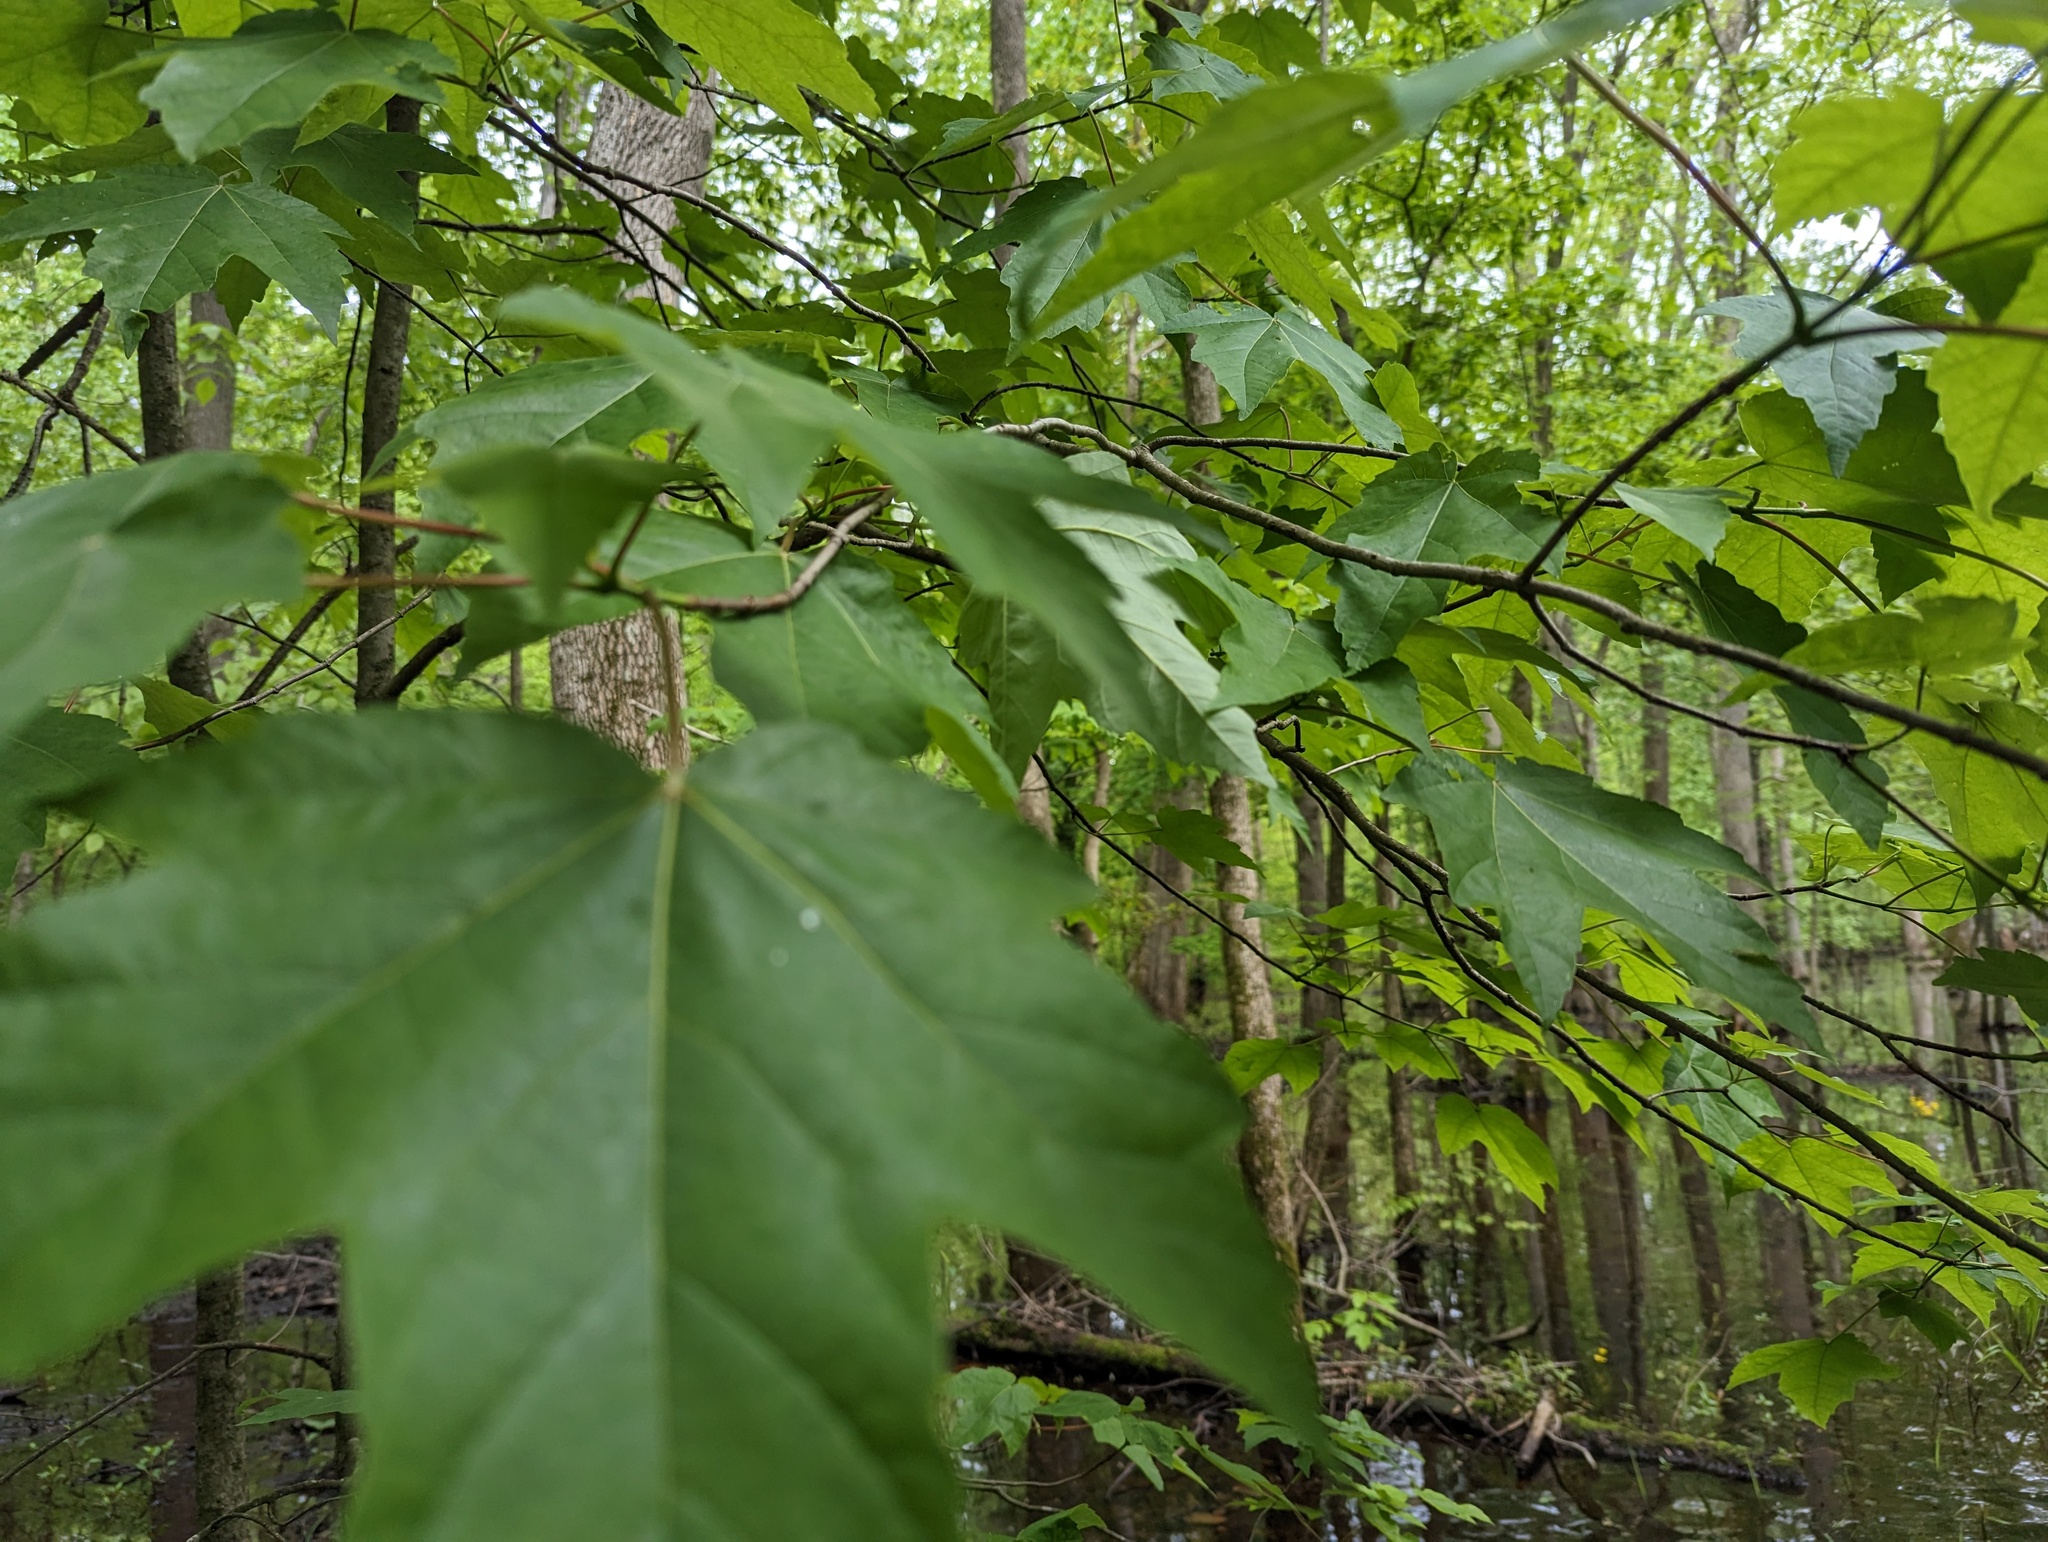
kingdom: Plantae
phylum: Tracheophyta
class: Magnoliopsida
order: Sapindales
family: Sapindaceae
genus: Acer
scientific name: Acer rubrum
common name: Red maple
